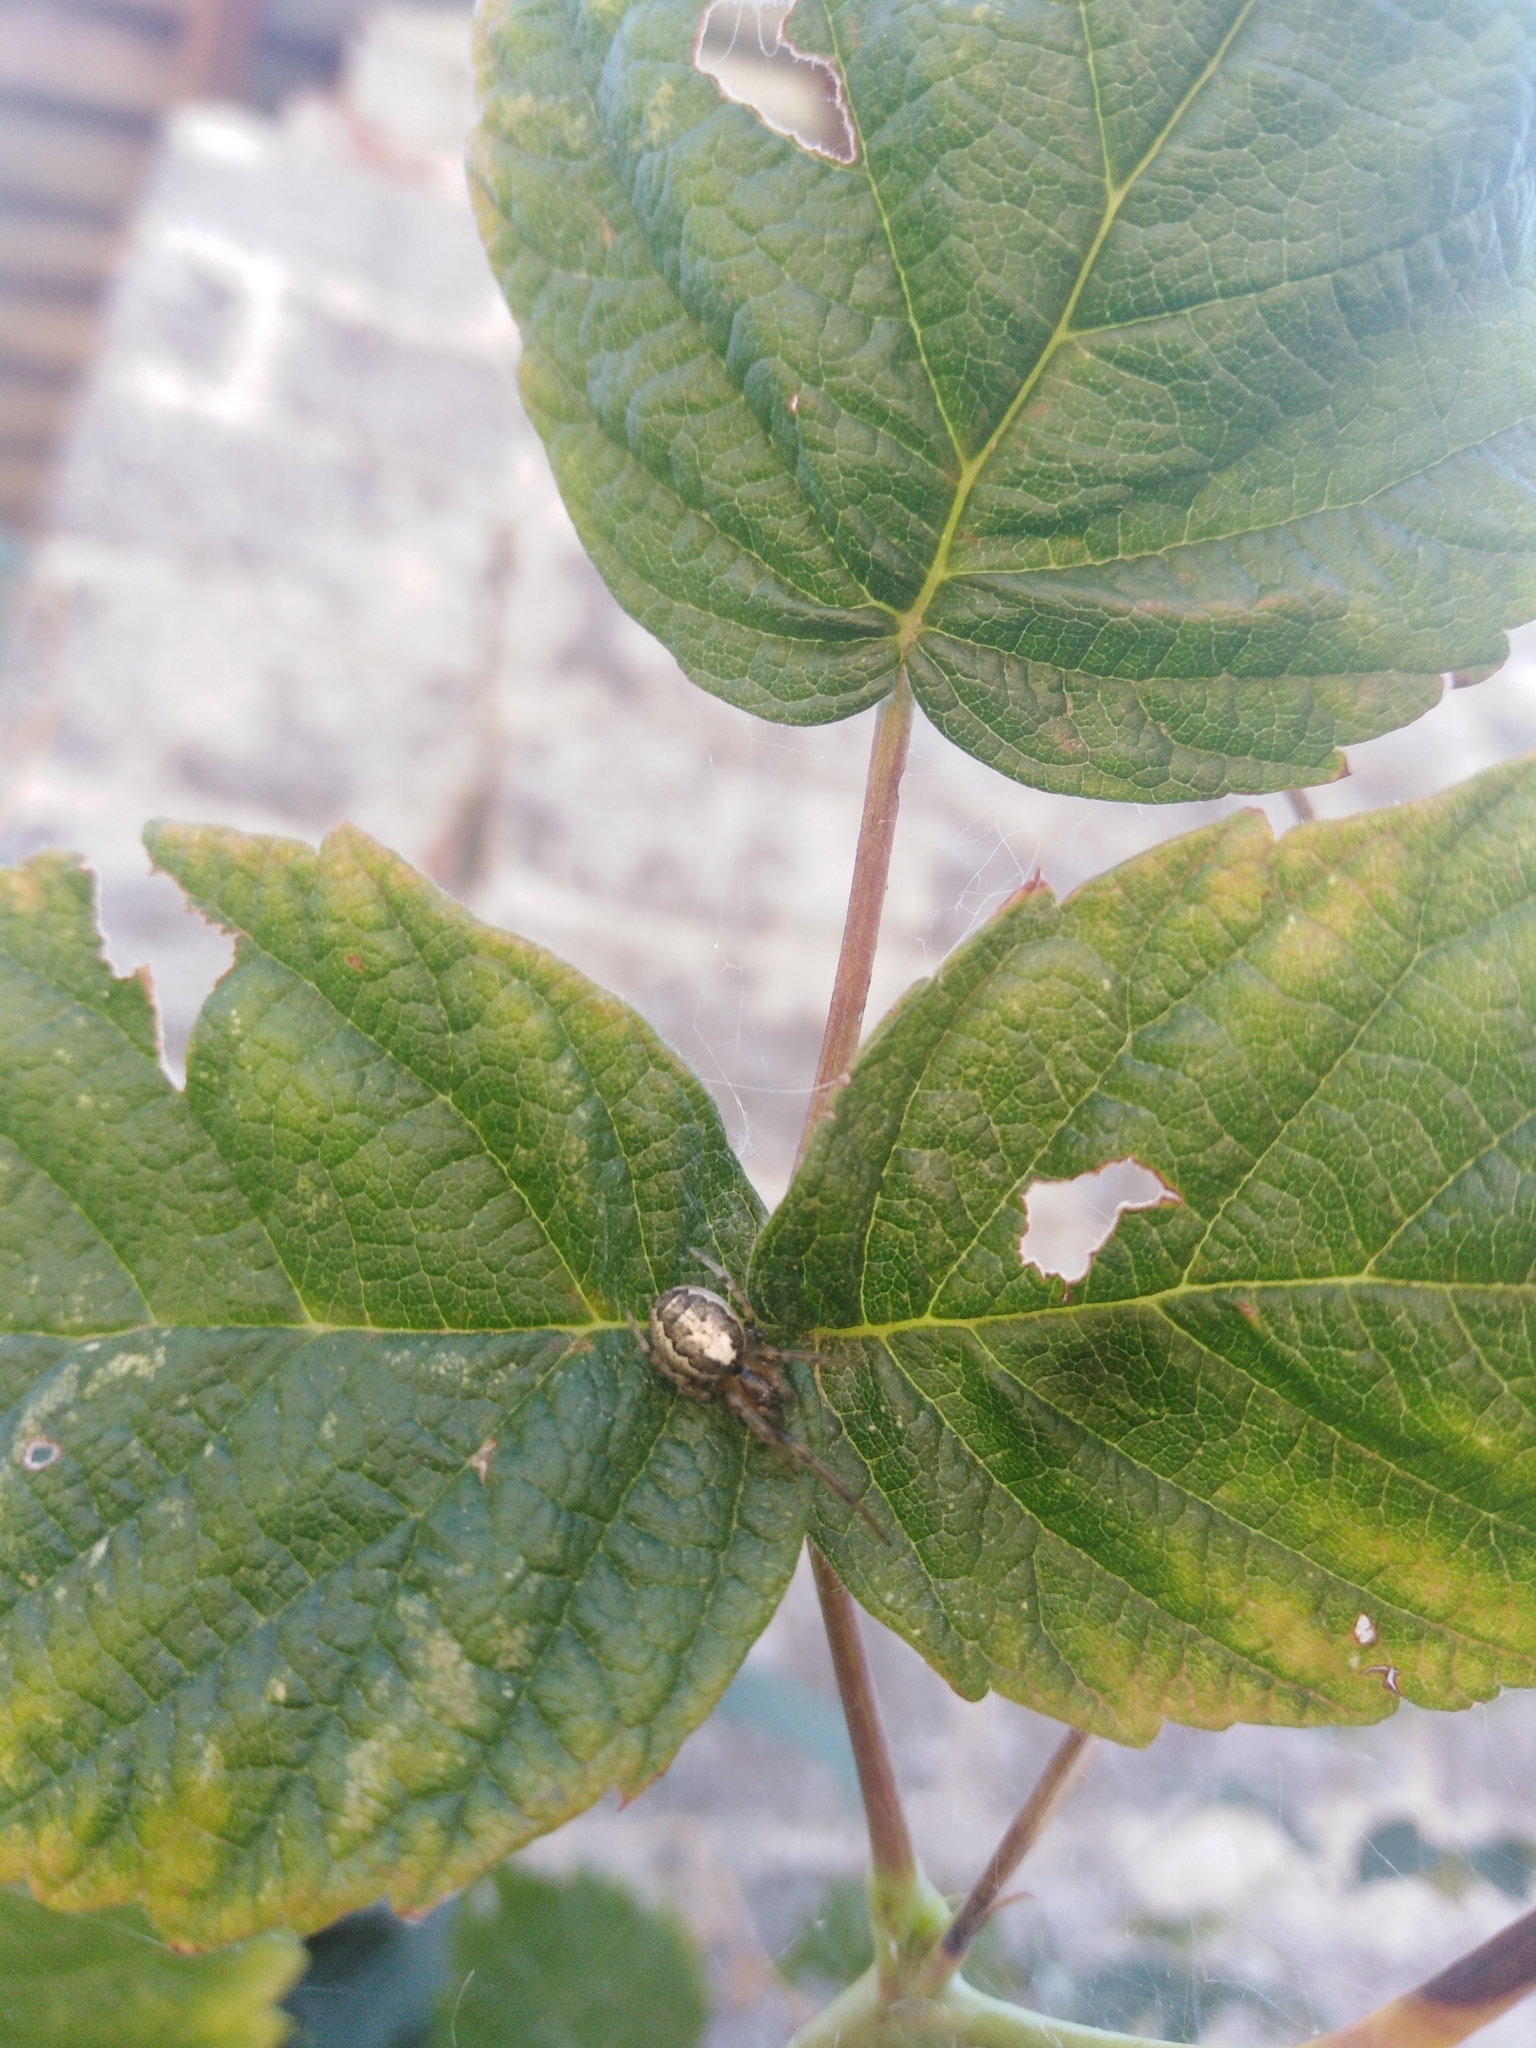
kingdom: Animalia
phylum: Arthropoda
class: Arachnida
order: Araneae
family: Araneidae
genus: Zygiella
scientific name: Zygiella x-notata
